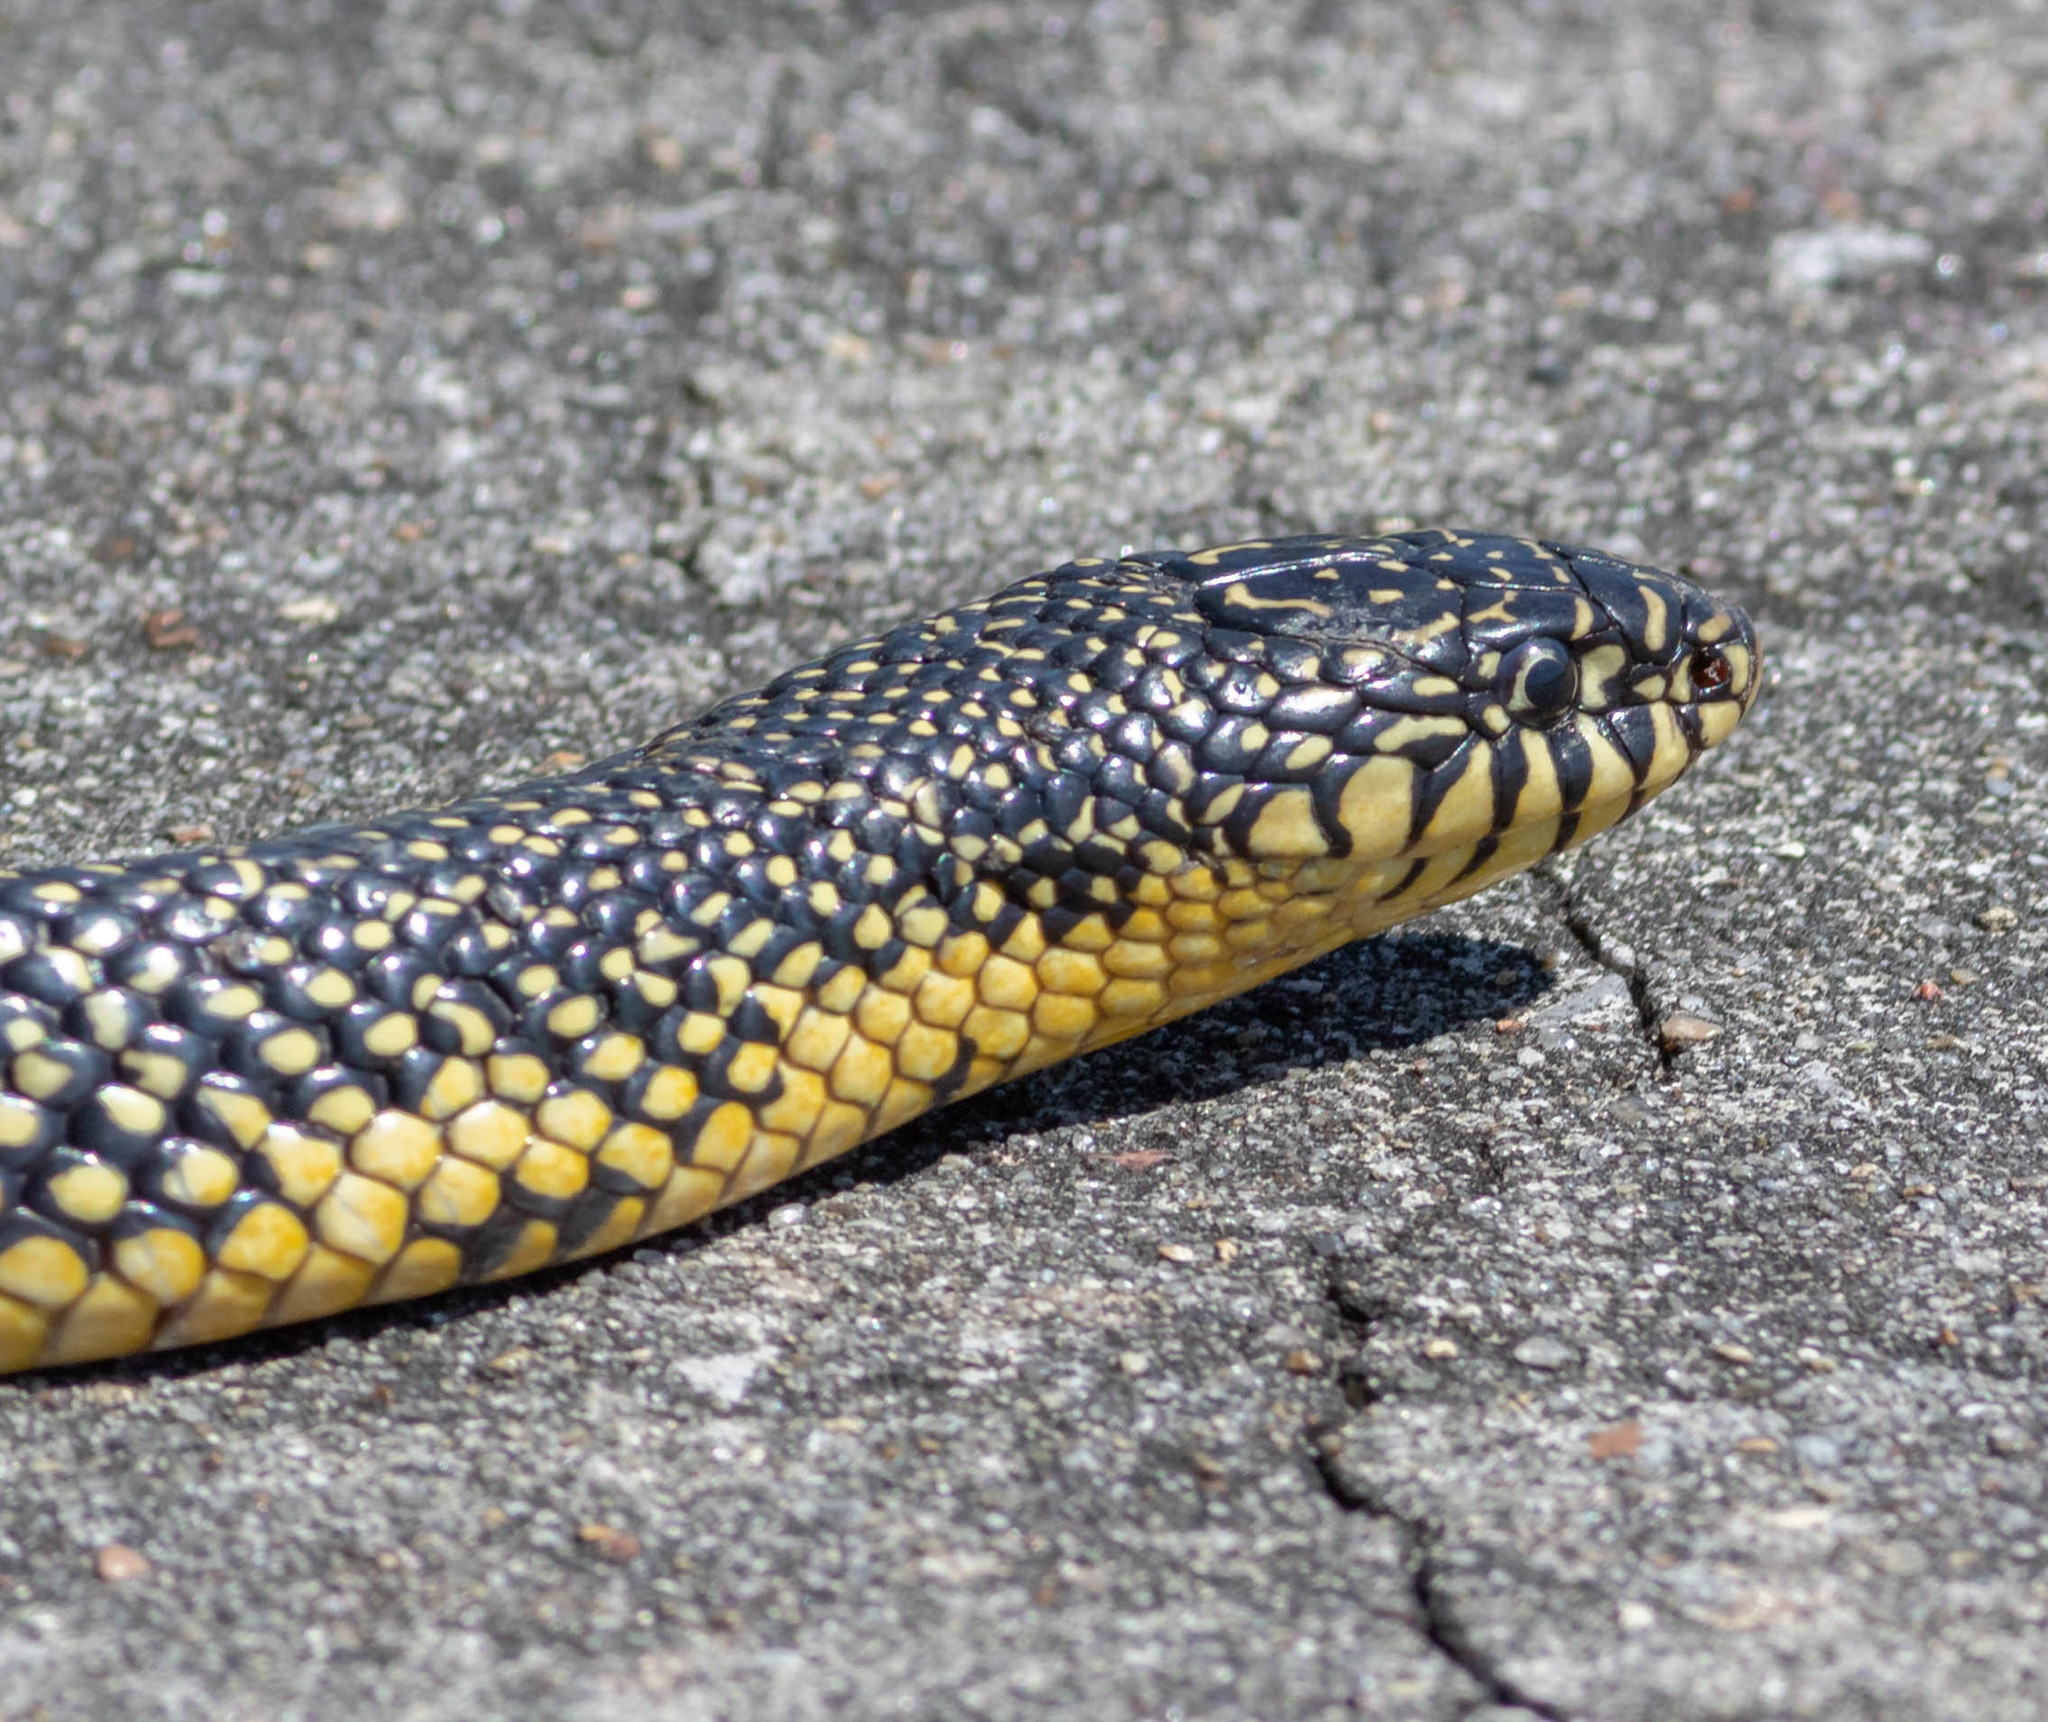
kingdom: Animalia
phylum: Chordata
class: Squamata
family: Colubridae
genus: Lampropeltis
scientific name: Lampropeltis holbrooki
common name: Speckled kingsnake
